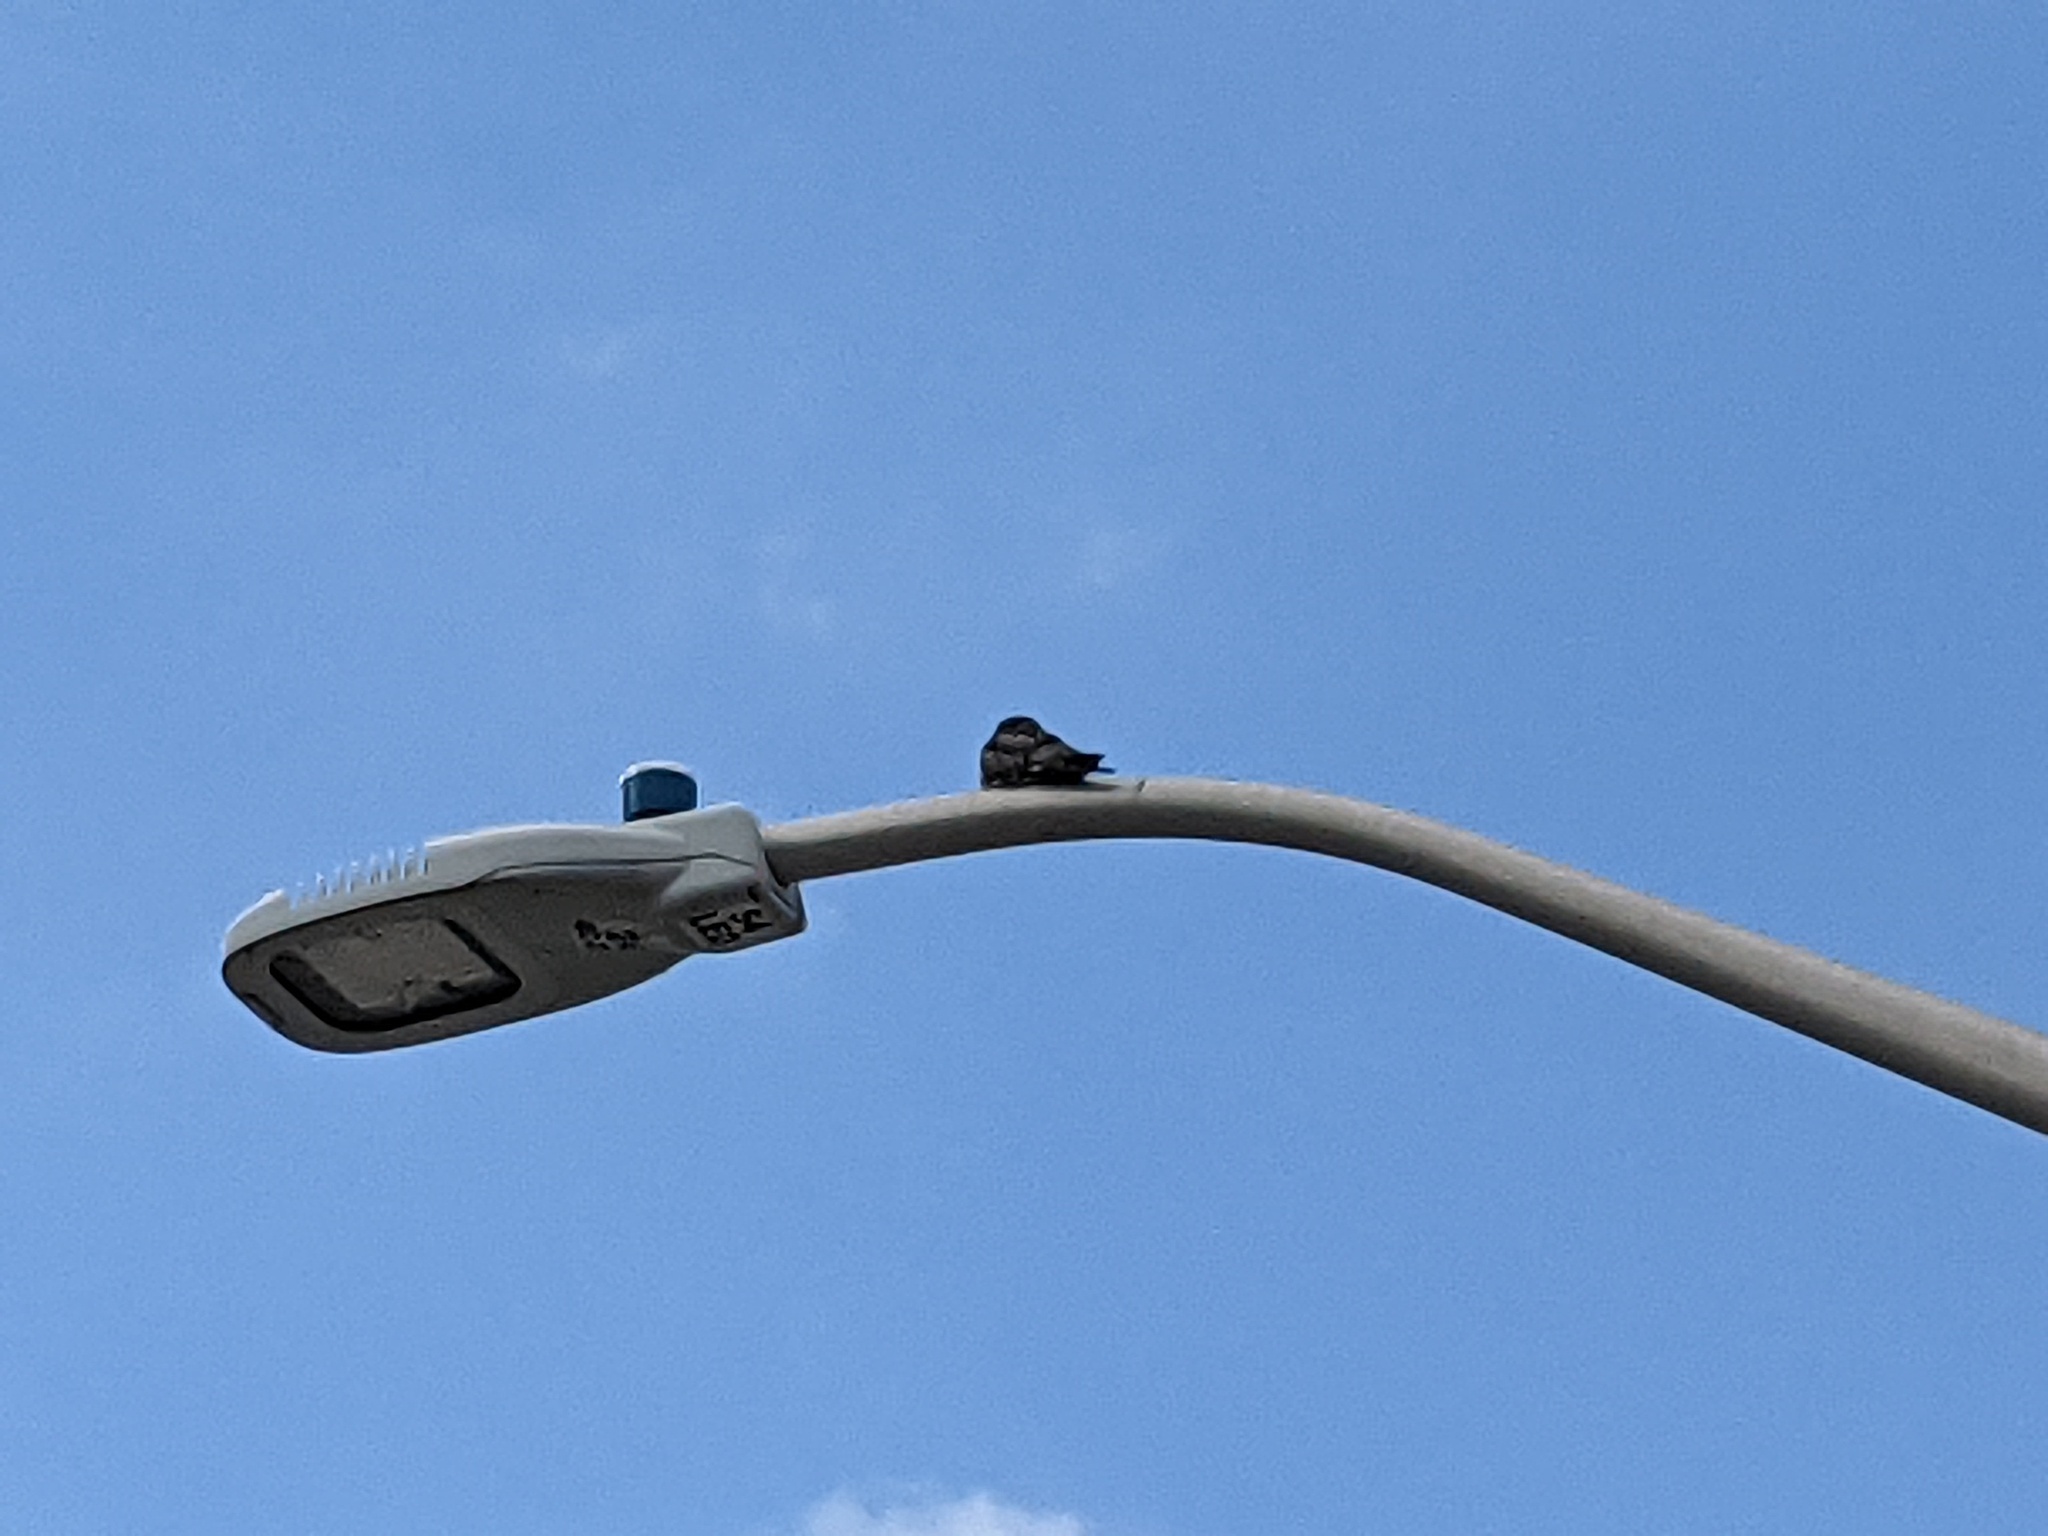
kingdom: Animalia
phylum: Chordata
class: Aves
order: Caprimulgiformes
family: Caprimulgidae
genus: Chordeiles
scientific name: Chordeiles minor
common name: Common nighthawk
